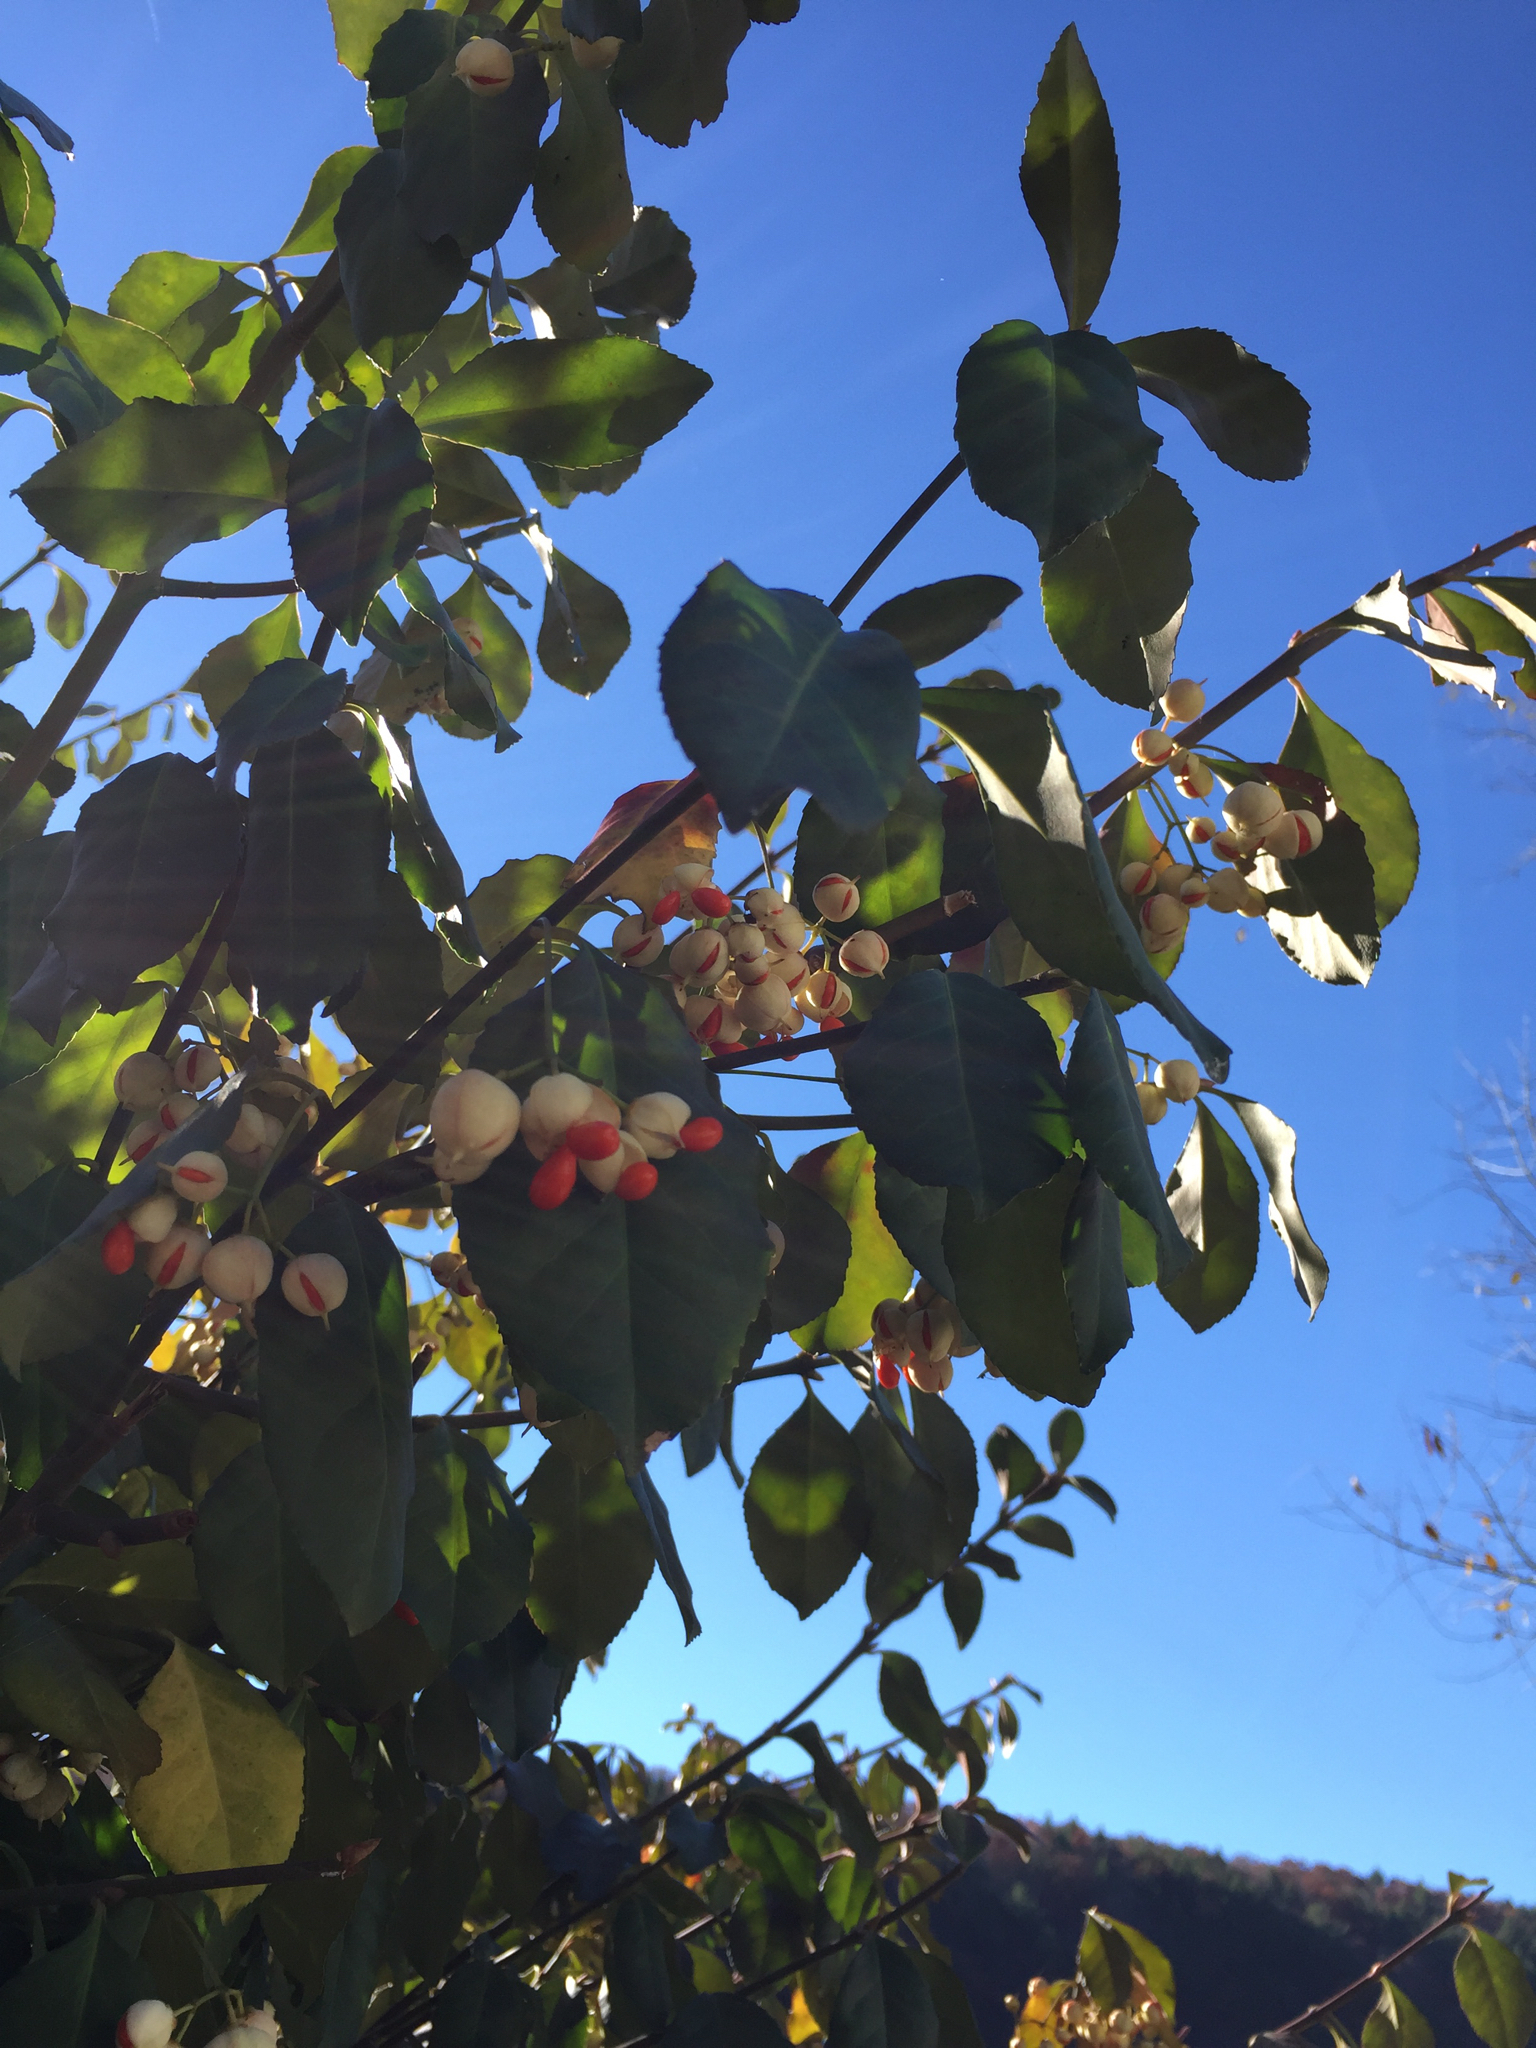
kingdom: Plantae
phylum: Tracheophyta
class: Magnoliopsida
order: Celastrales
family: Celastraceae
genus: Euonymus
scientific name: Euonymus fortunei
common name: Climbing euonymus
